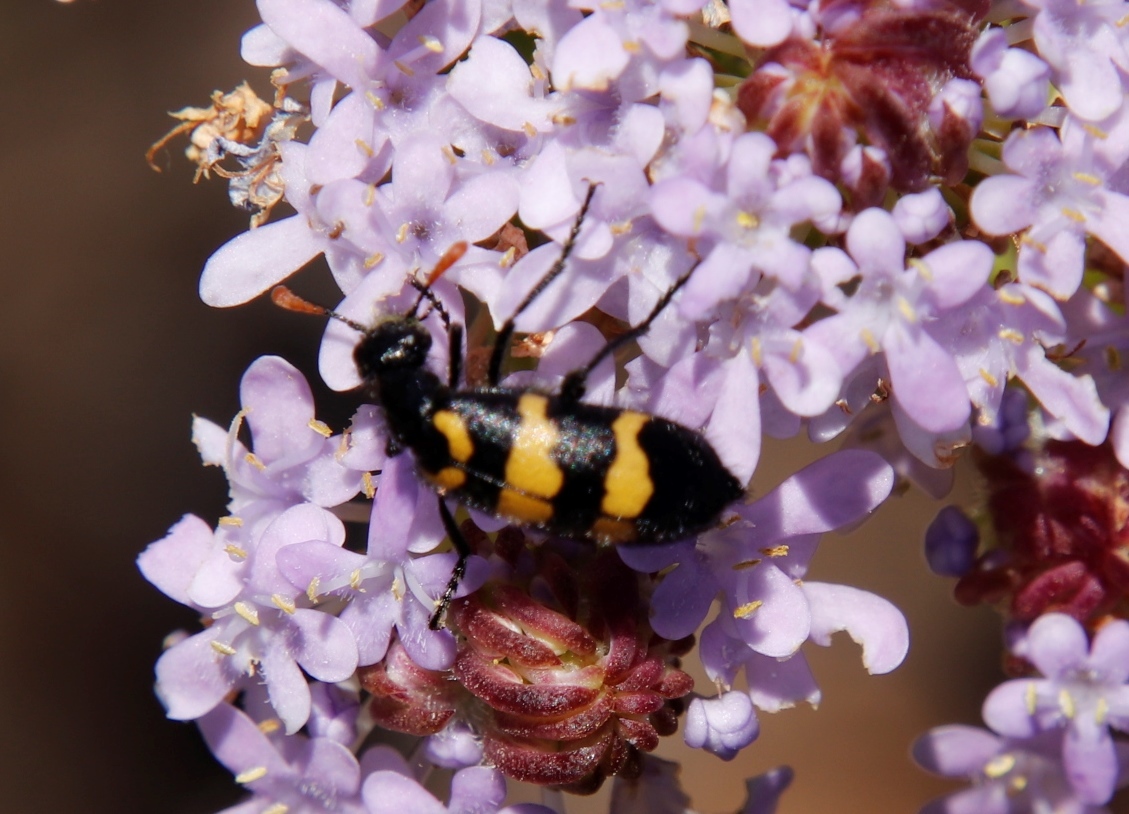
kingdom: Animalia
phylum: Arthropoda
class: Insecta
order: Coleoptera
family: Meloidae
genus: Meloe
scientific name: Meloe lunata
